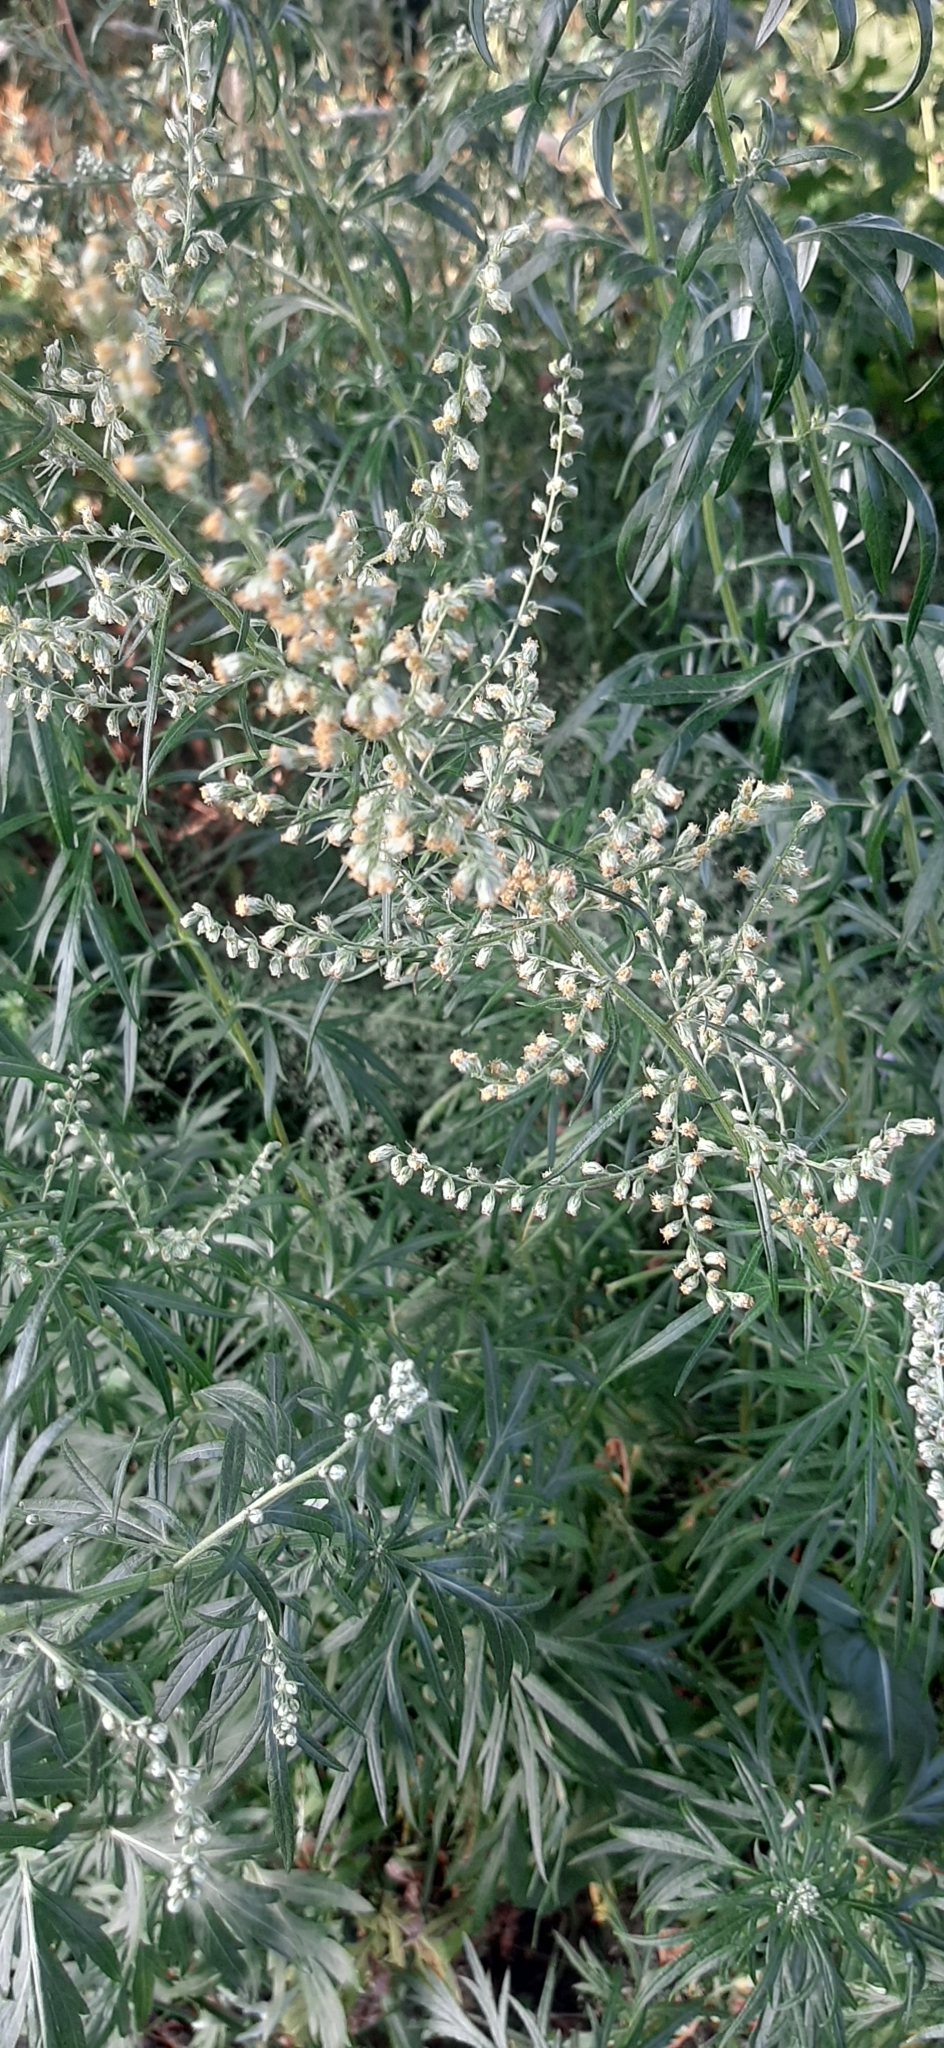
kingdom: Plantae
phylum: Tracheophyta
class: Magnoliopsida
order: Asterales
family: Asteraceae
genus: Artemisia
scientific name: Artemisia vulgaris
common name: Mugwort
